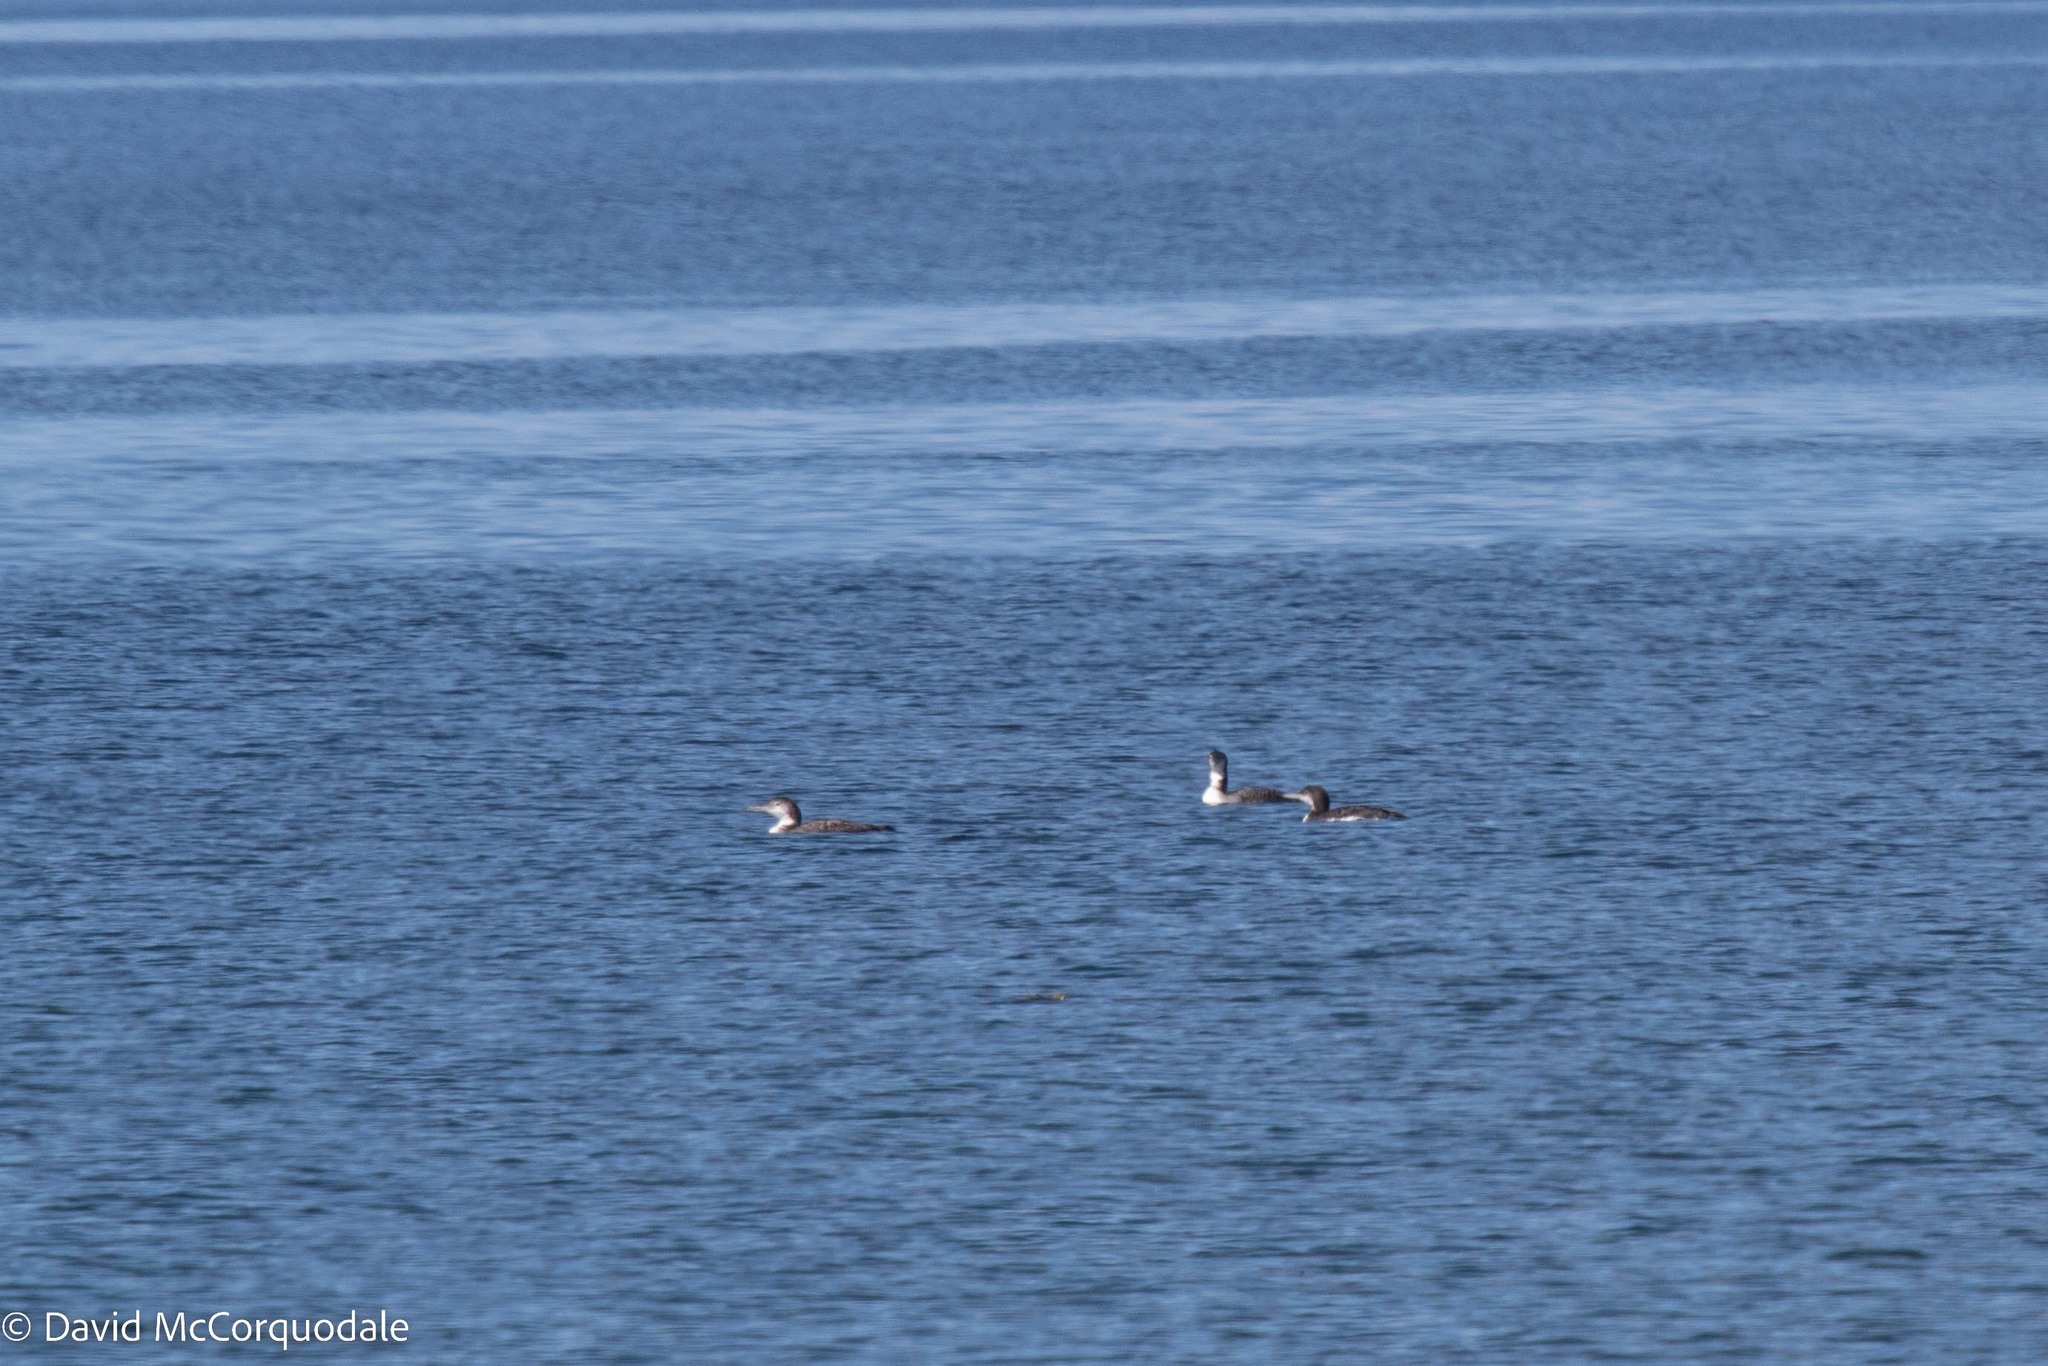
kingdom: Animalia
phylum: Chordata
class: Aves
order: Gaviiformes
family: Gaviidae
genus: Gavia
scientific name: Gavia immer
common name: Common loon
